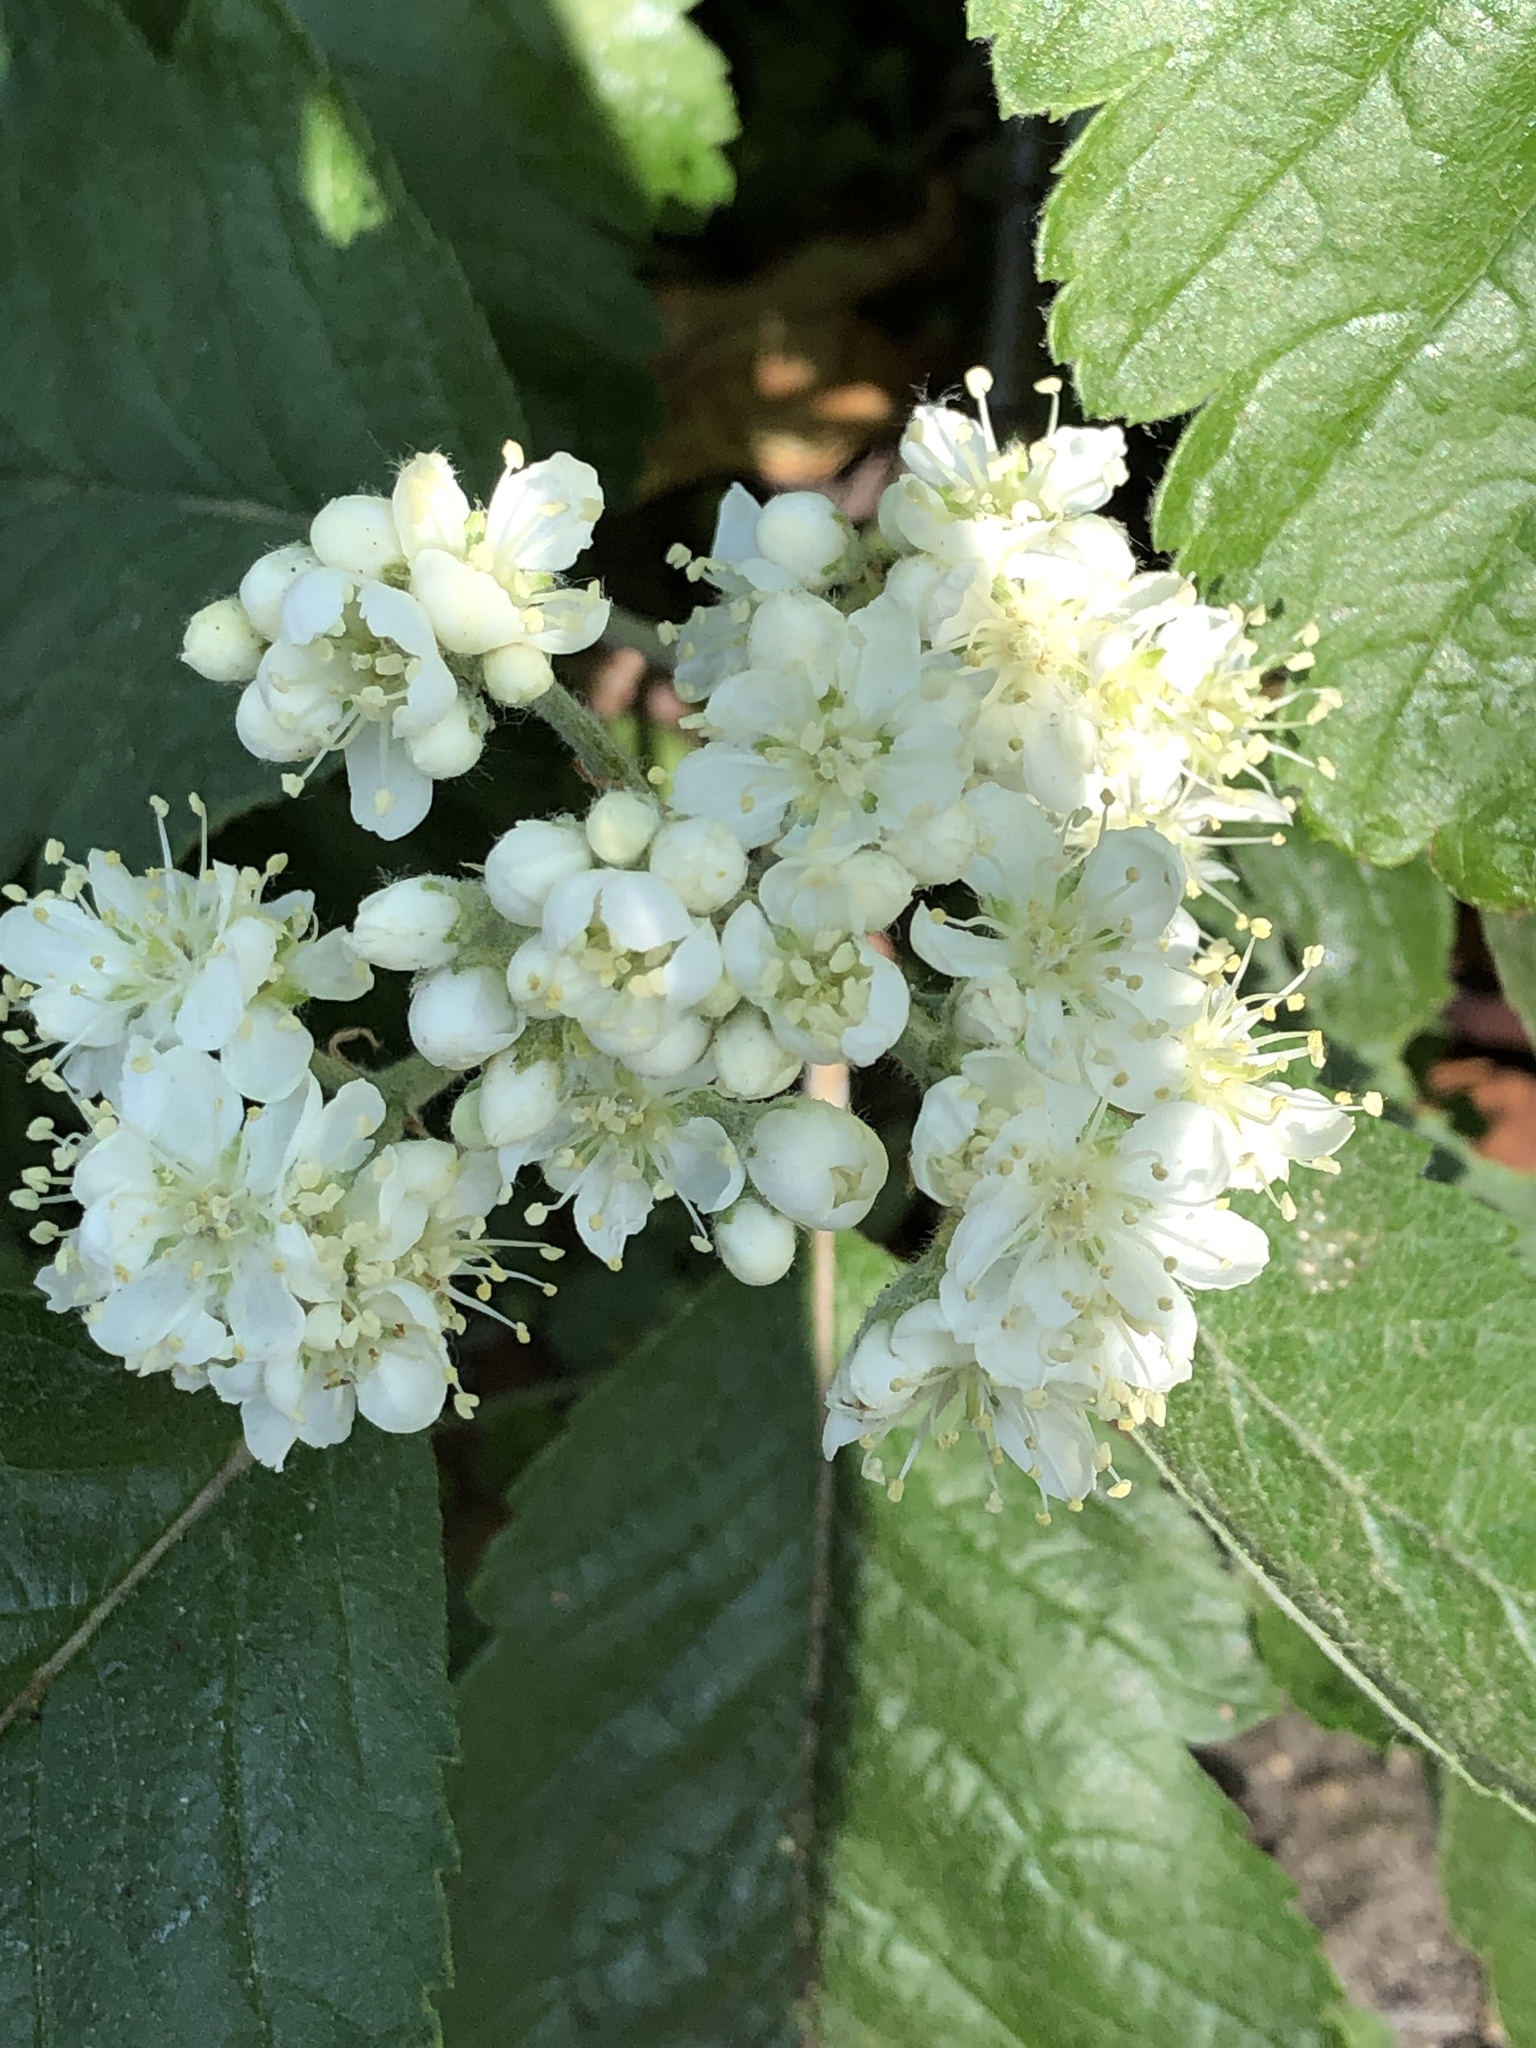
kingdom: Plantae
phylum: Tracheophyta
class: Magnoliopsida
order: Rosales
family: Rosaceae
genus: Aria
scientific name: Aria edulis
